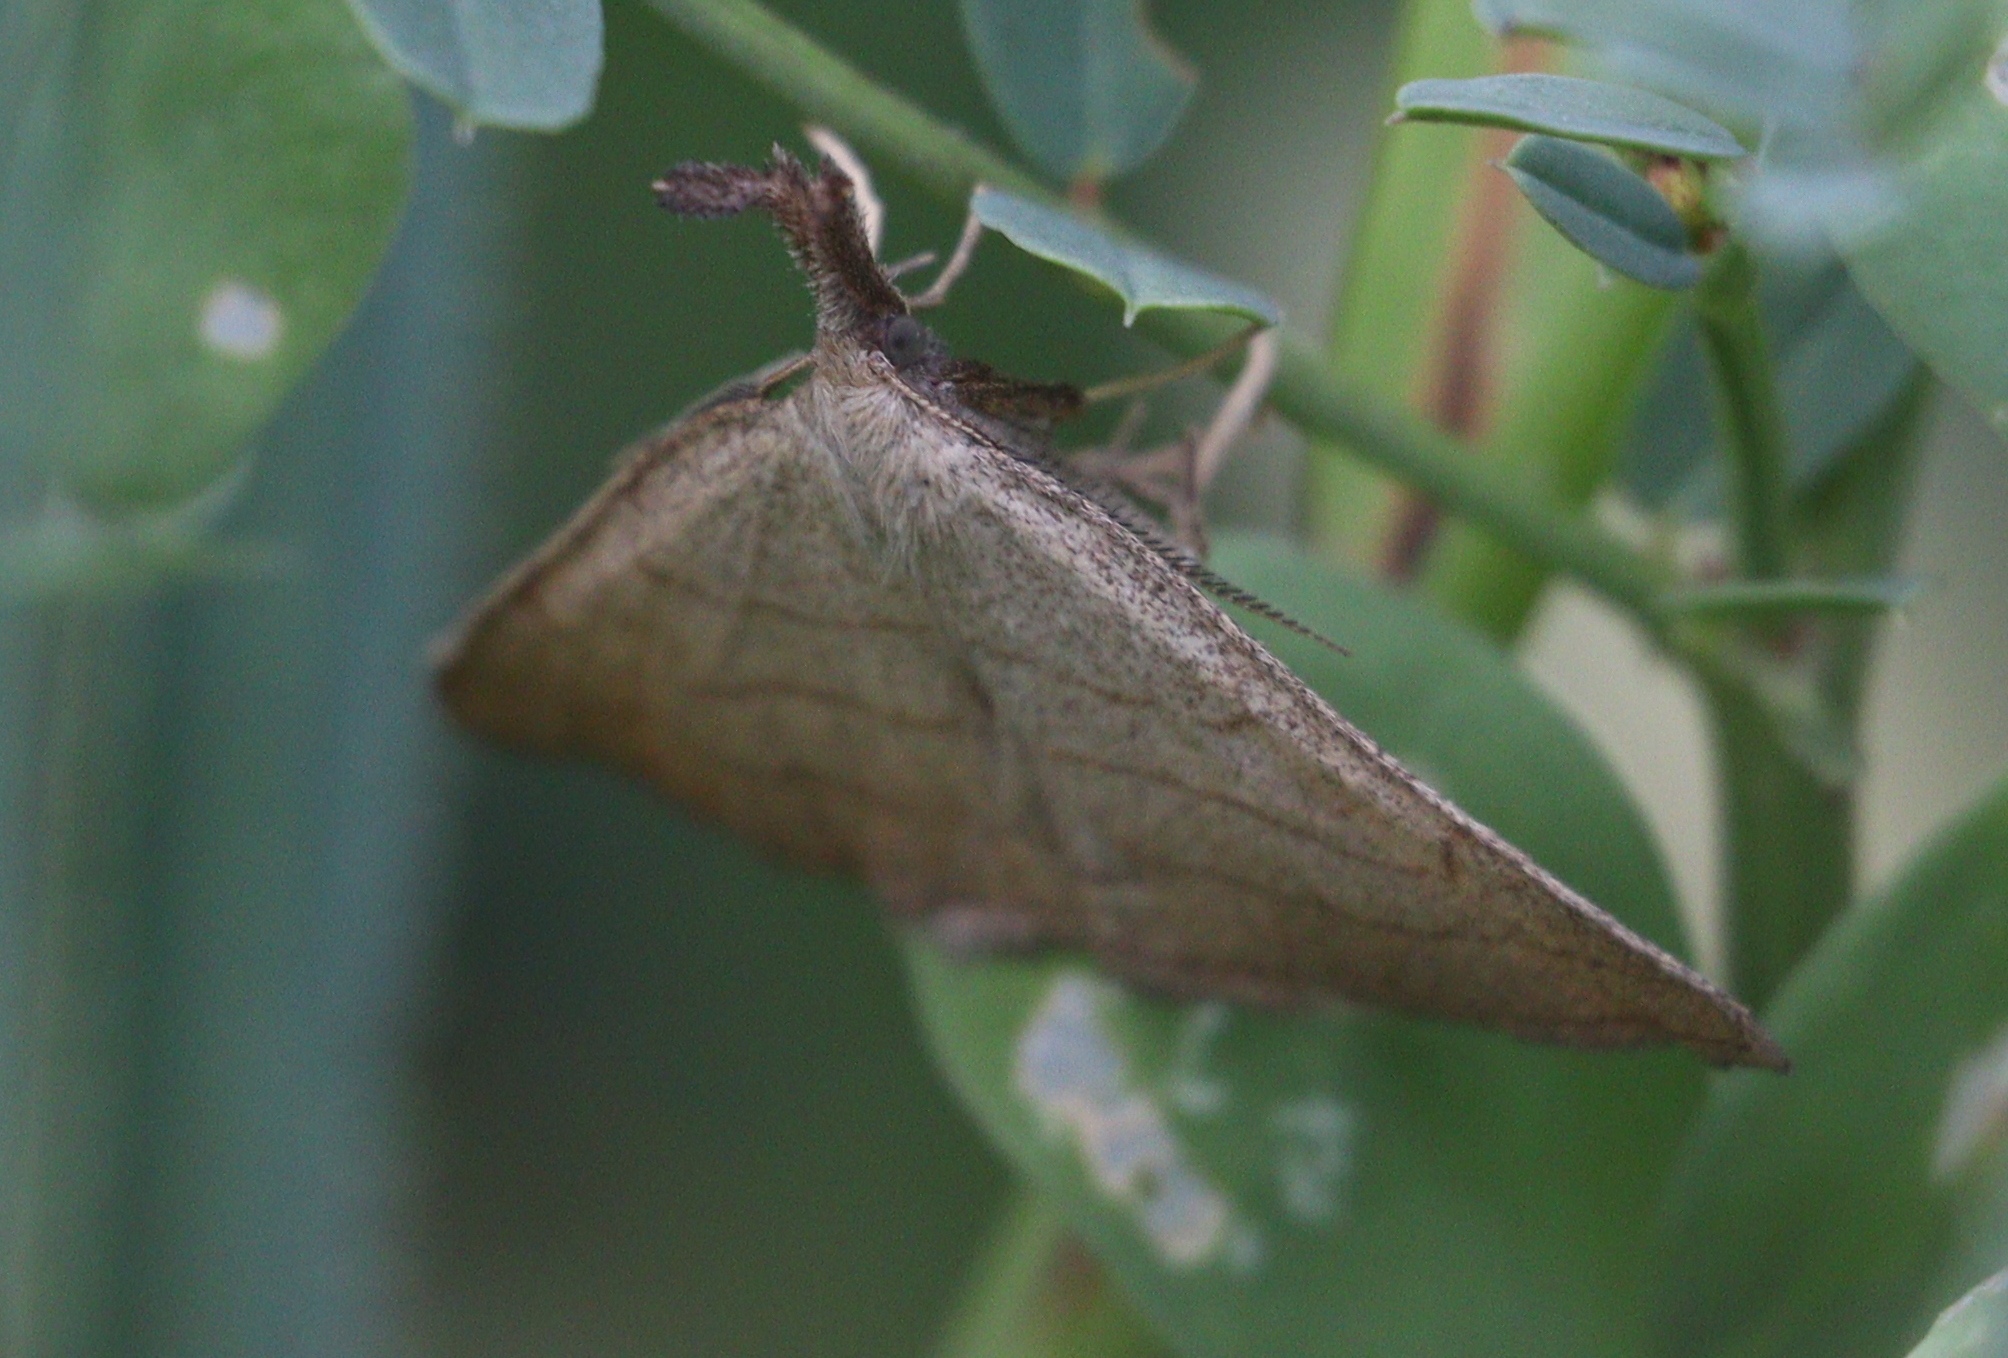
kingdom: Animalia
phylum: Arthropoda
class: Insecta
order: Lepidoptera
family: Erebidae
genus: Polypogon
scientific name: Polypogon tentacularia
